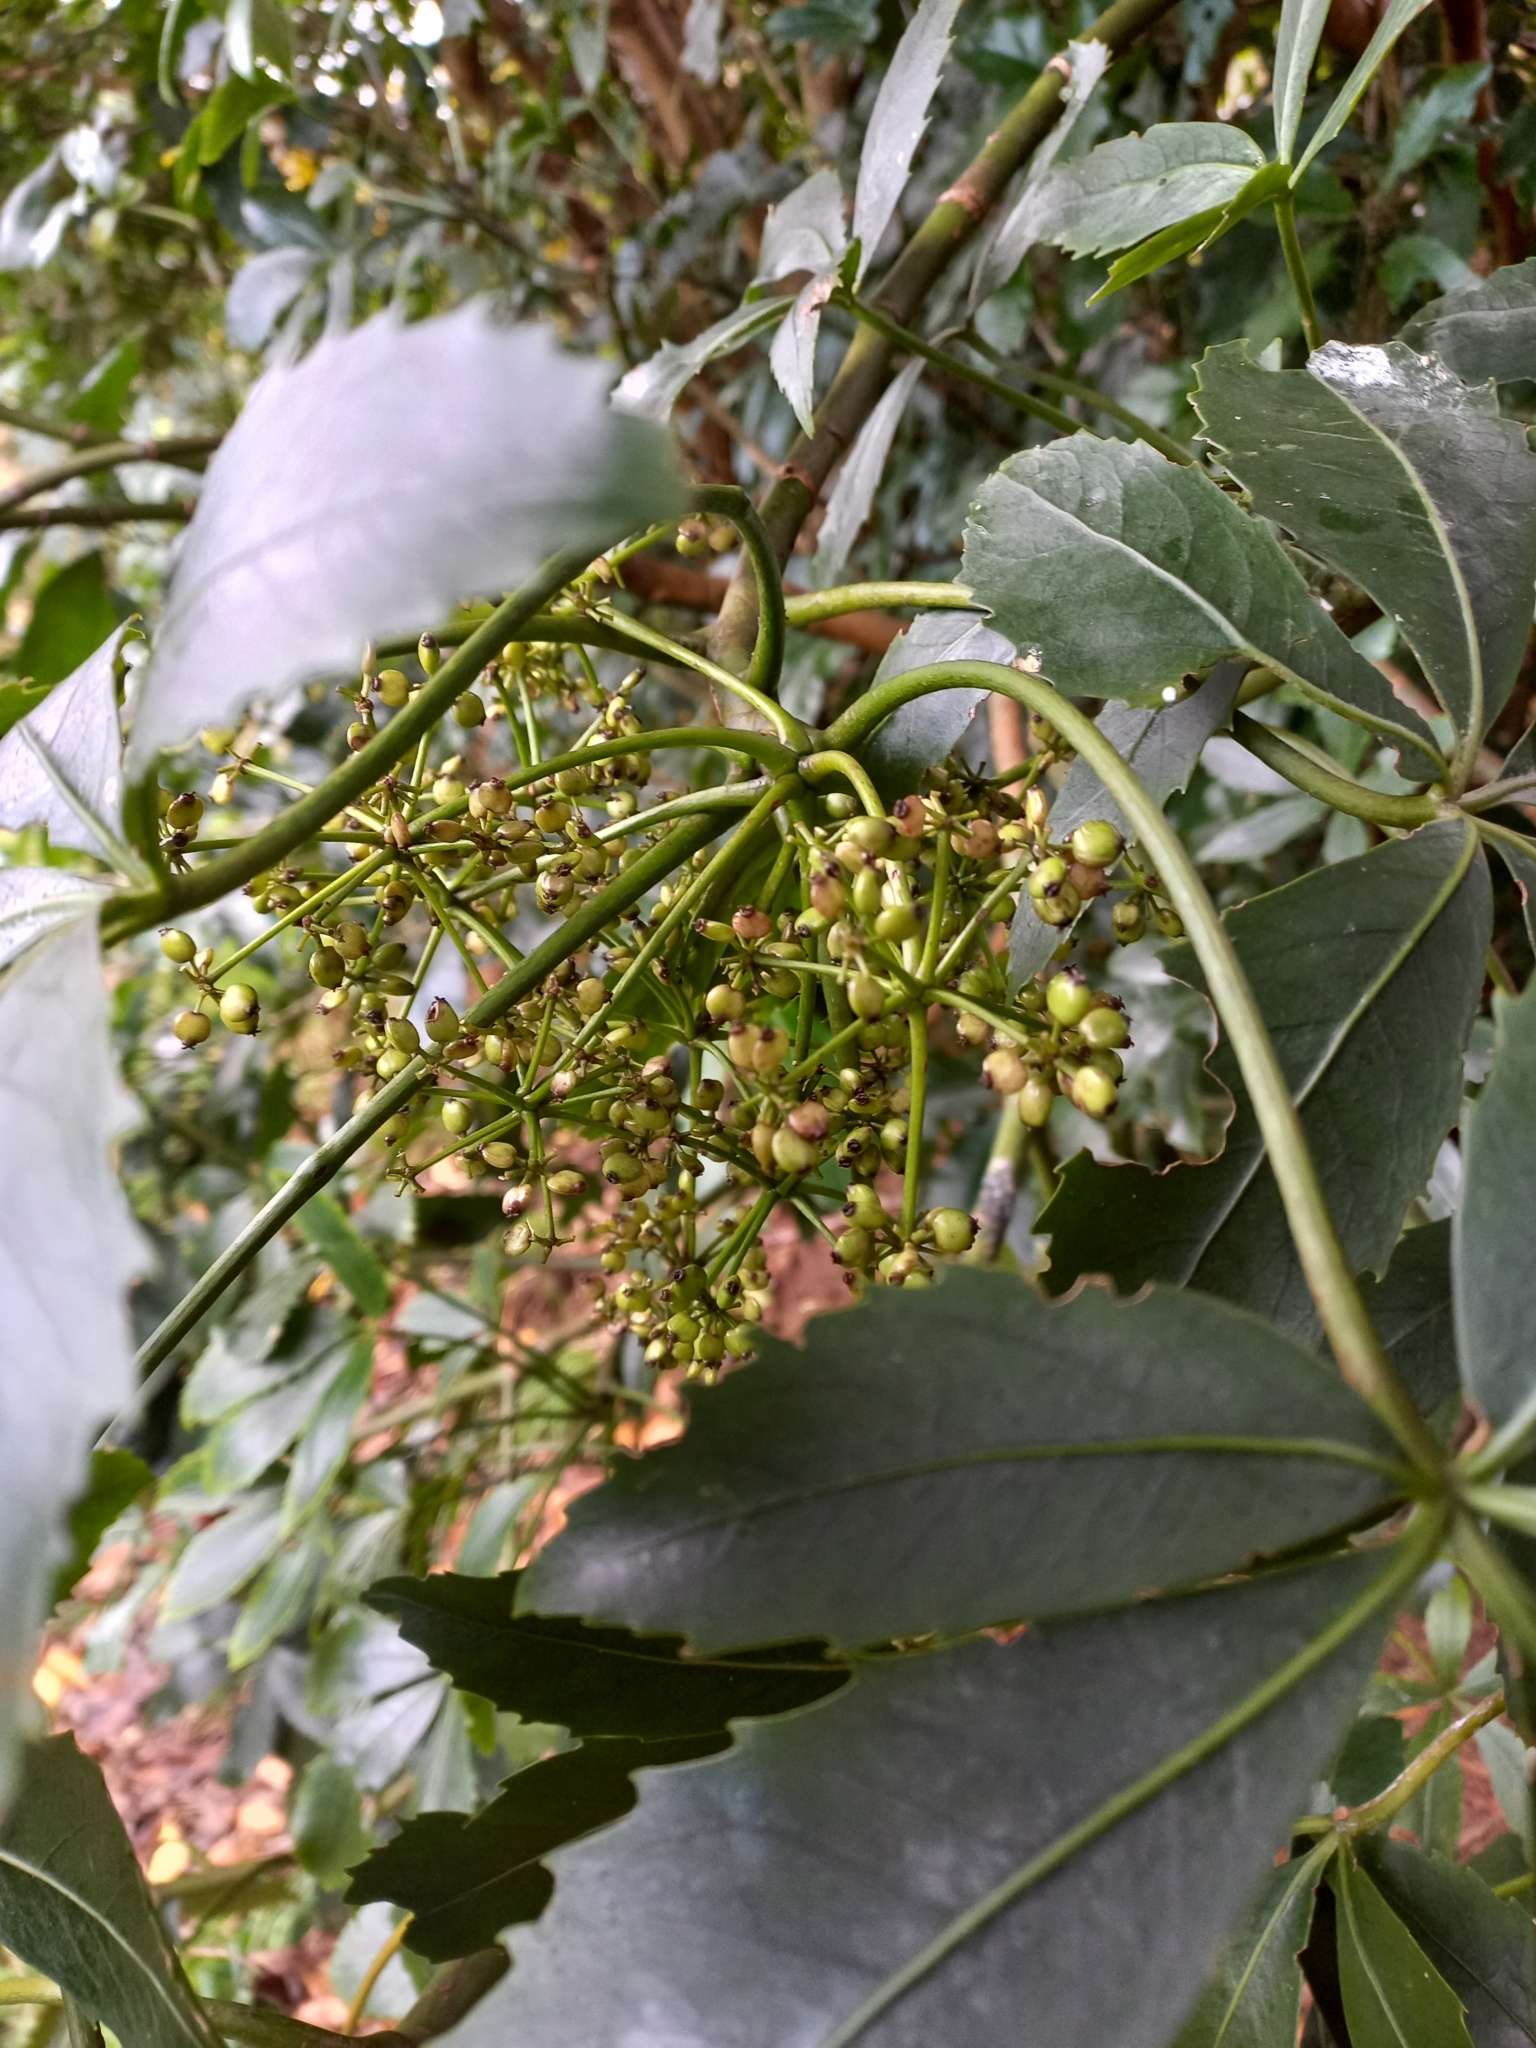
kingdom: Plantae
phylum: Tracheophyta
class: Magnoliopsida
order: Apiales
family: Araliaceae
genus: Neopanax
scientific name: Neopanax colensoi
